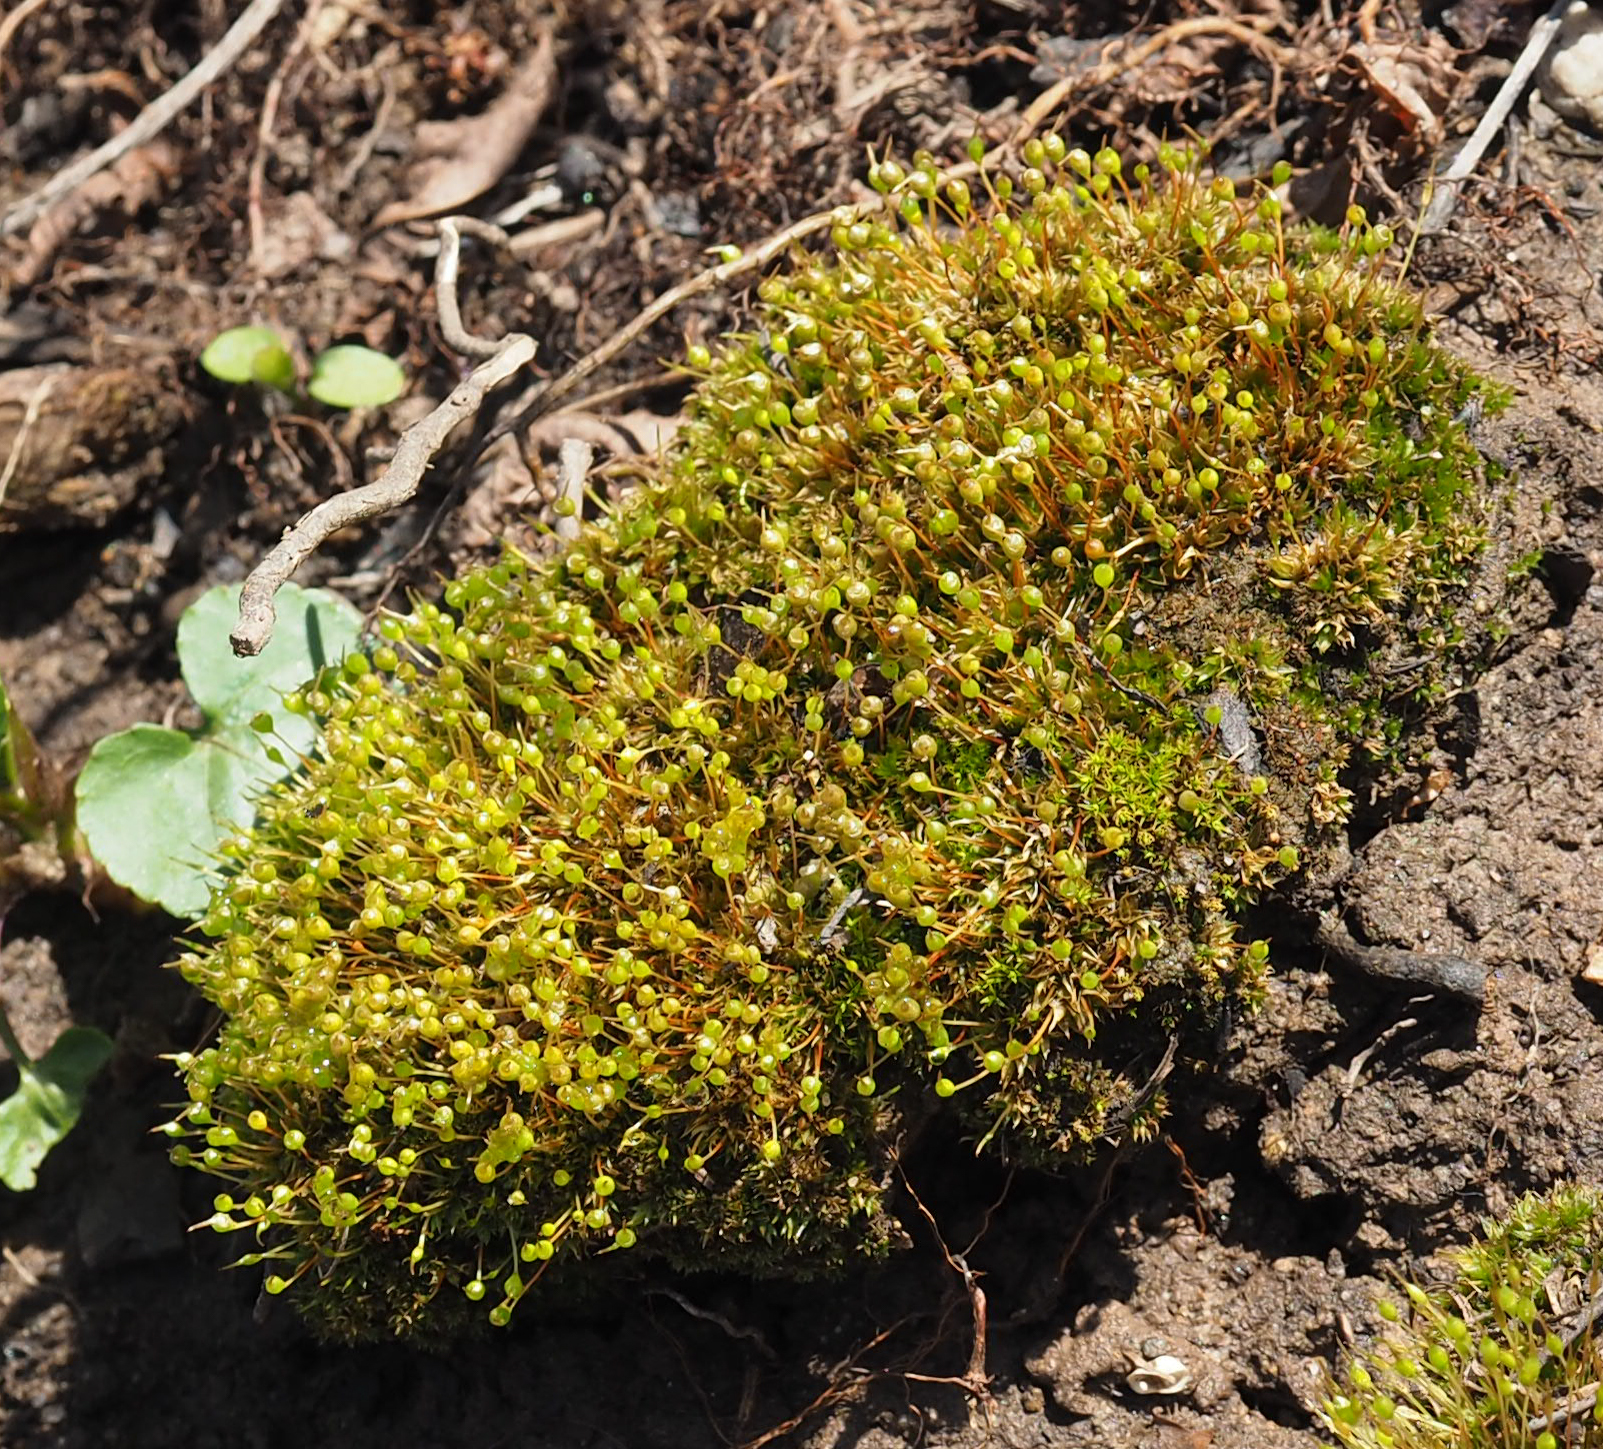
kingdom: Plantae
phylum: Bryophyta
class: Bryopsida
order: Funariales
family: Funariaceae
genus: Physcomitrium
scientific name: Physcomitrium pyriforme
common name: Common bladder-moss
